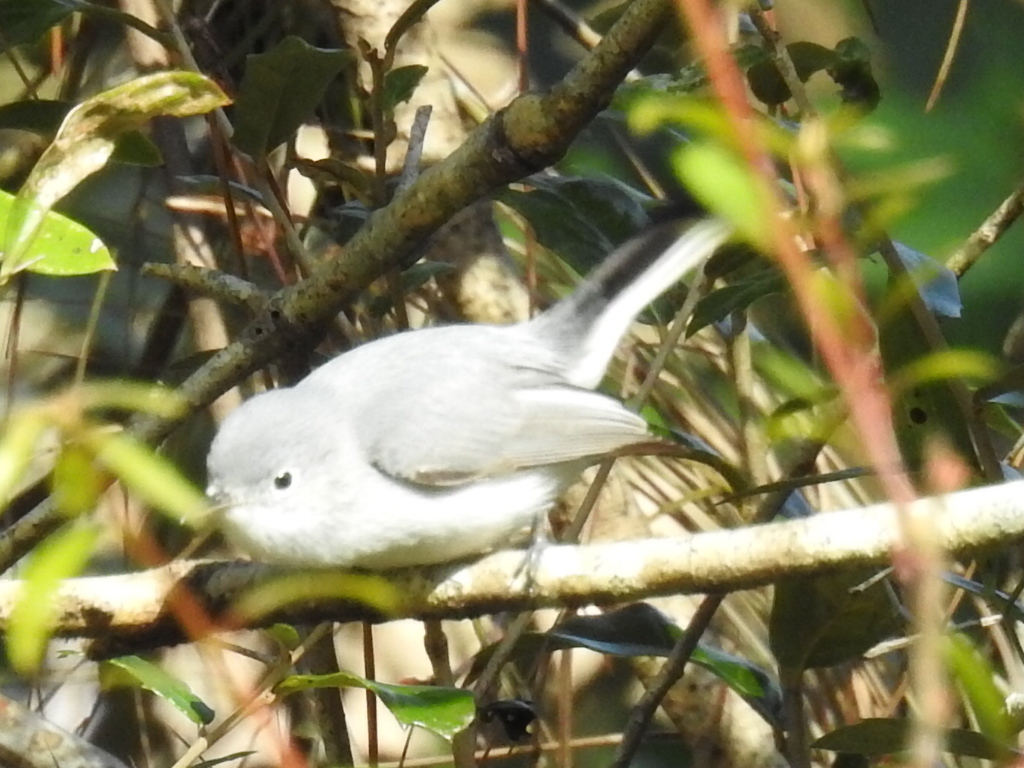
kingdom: Animalia
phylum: Chordata
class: Aves
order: Passeriformes
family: Polioptilidae
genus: Polioptila
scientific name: Polioptila caerulea
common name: Blue-gray gnatcatcher
